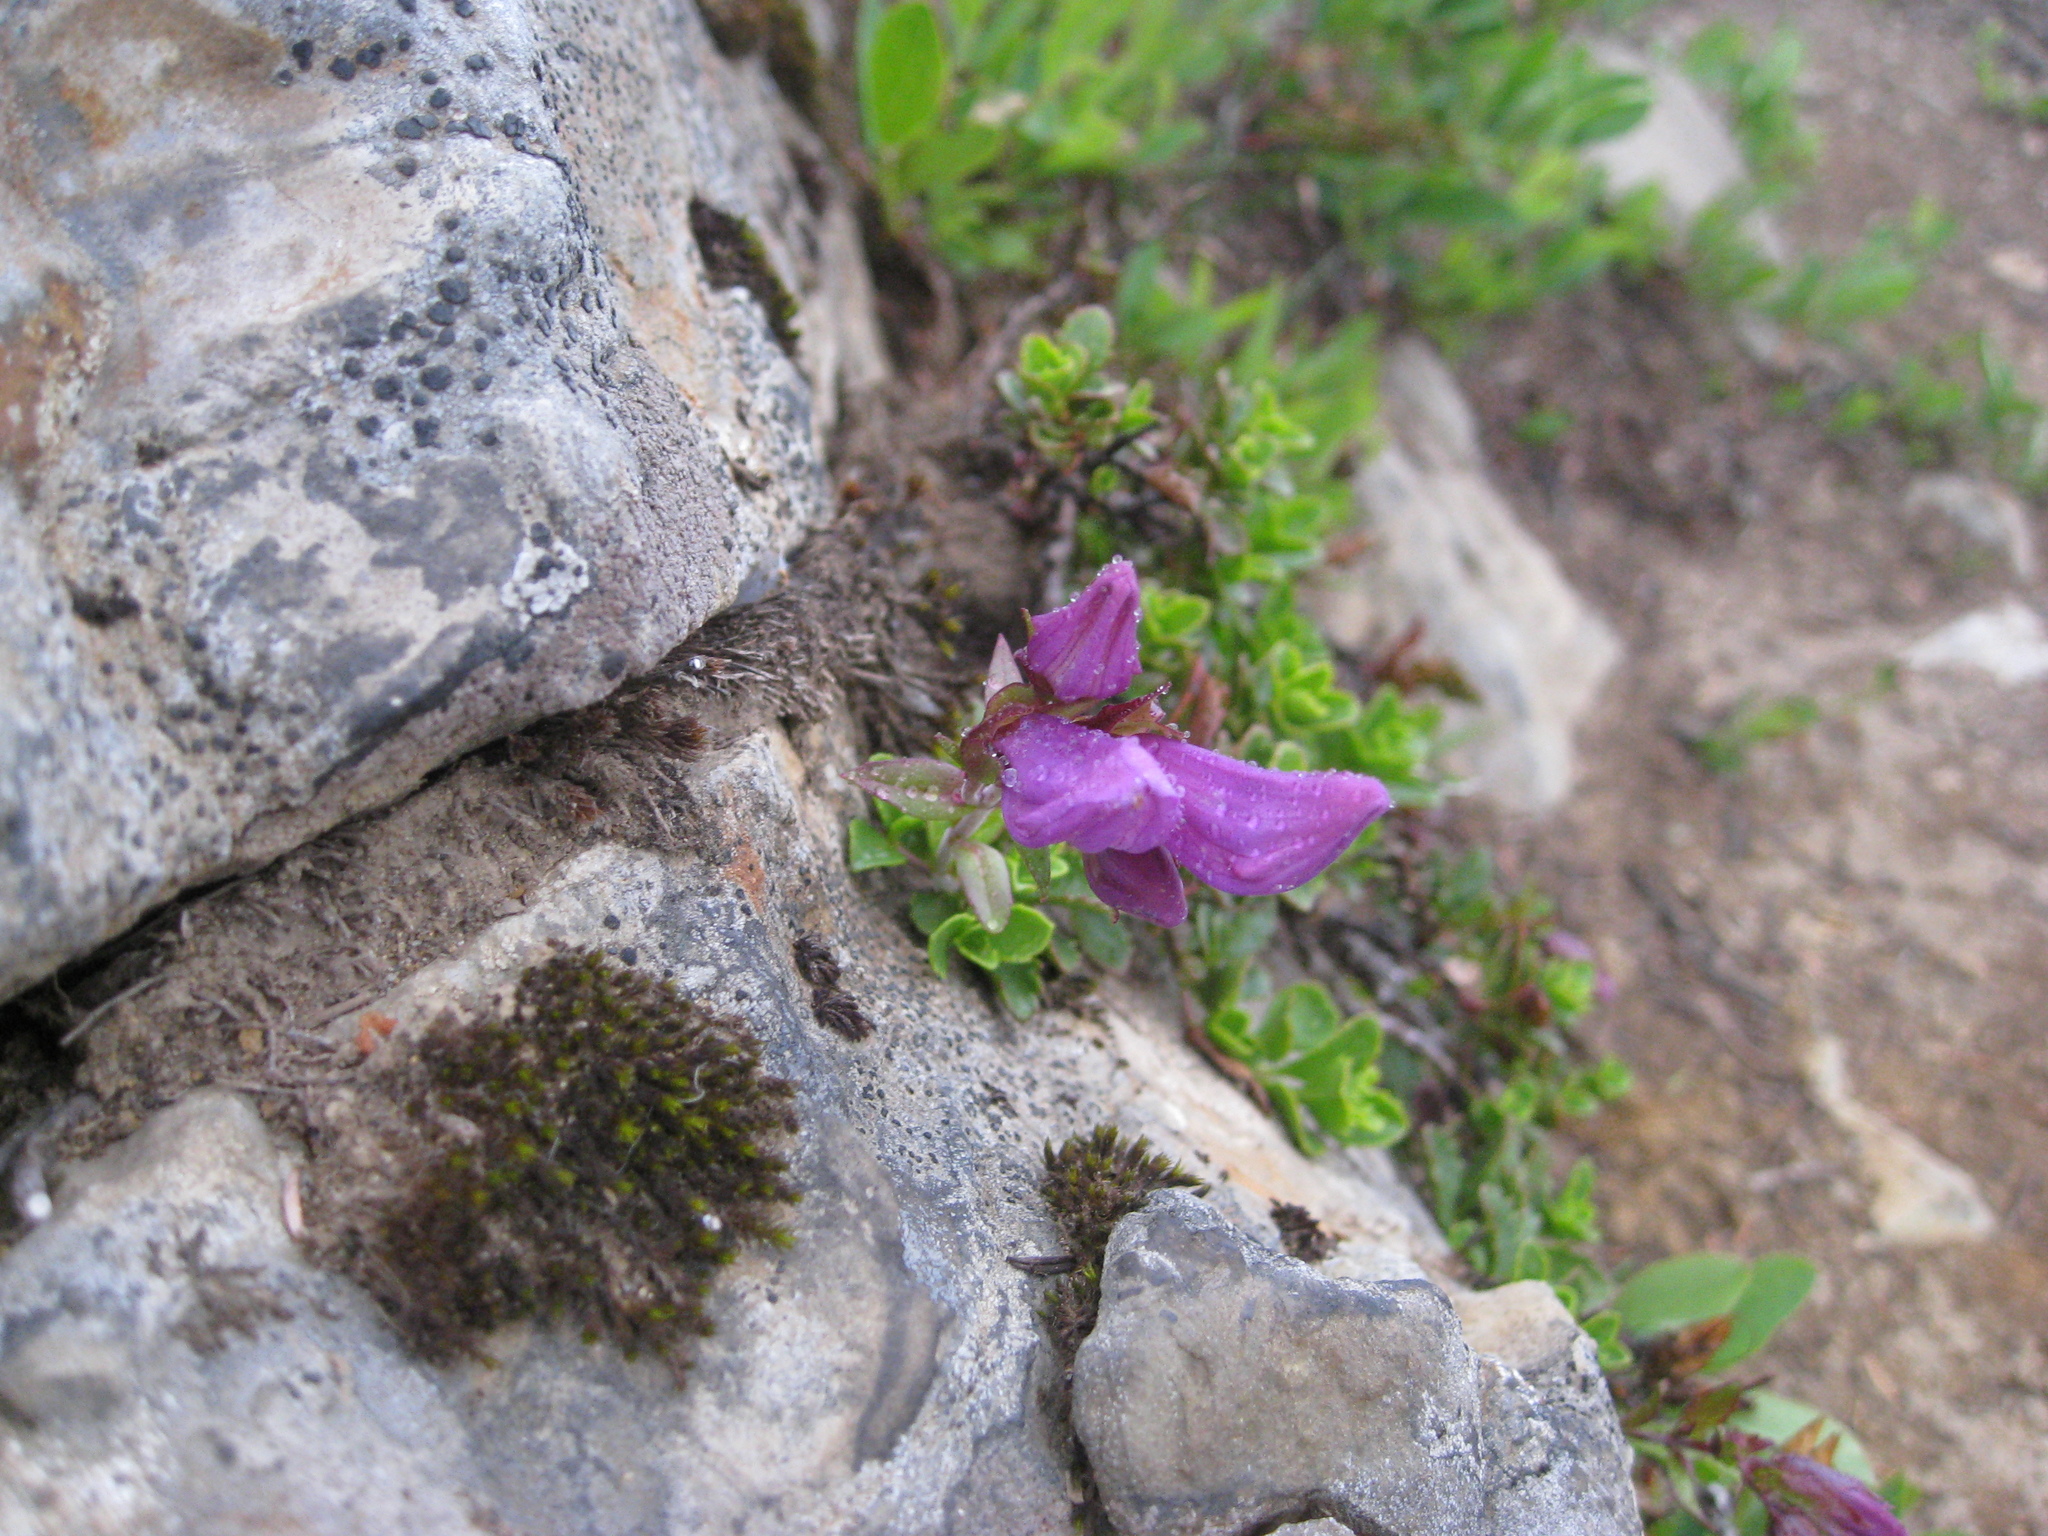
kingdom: Plantae
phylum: Tracheophyta
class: Magnoliopsida
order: Lamiales
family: Plantaginaceae
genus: Penstemon
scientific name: Penstemon davidsonii
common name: Davidson's penstemon
